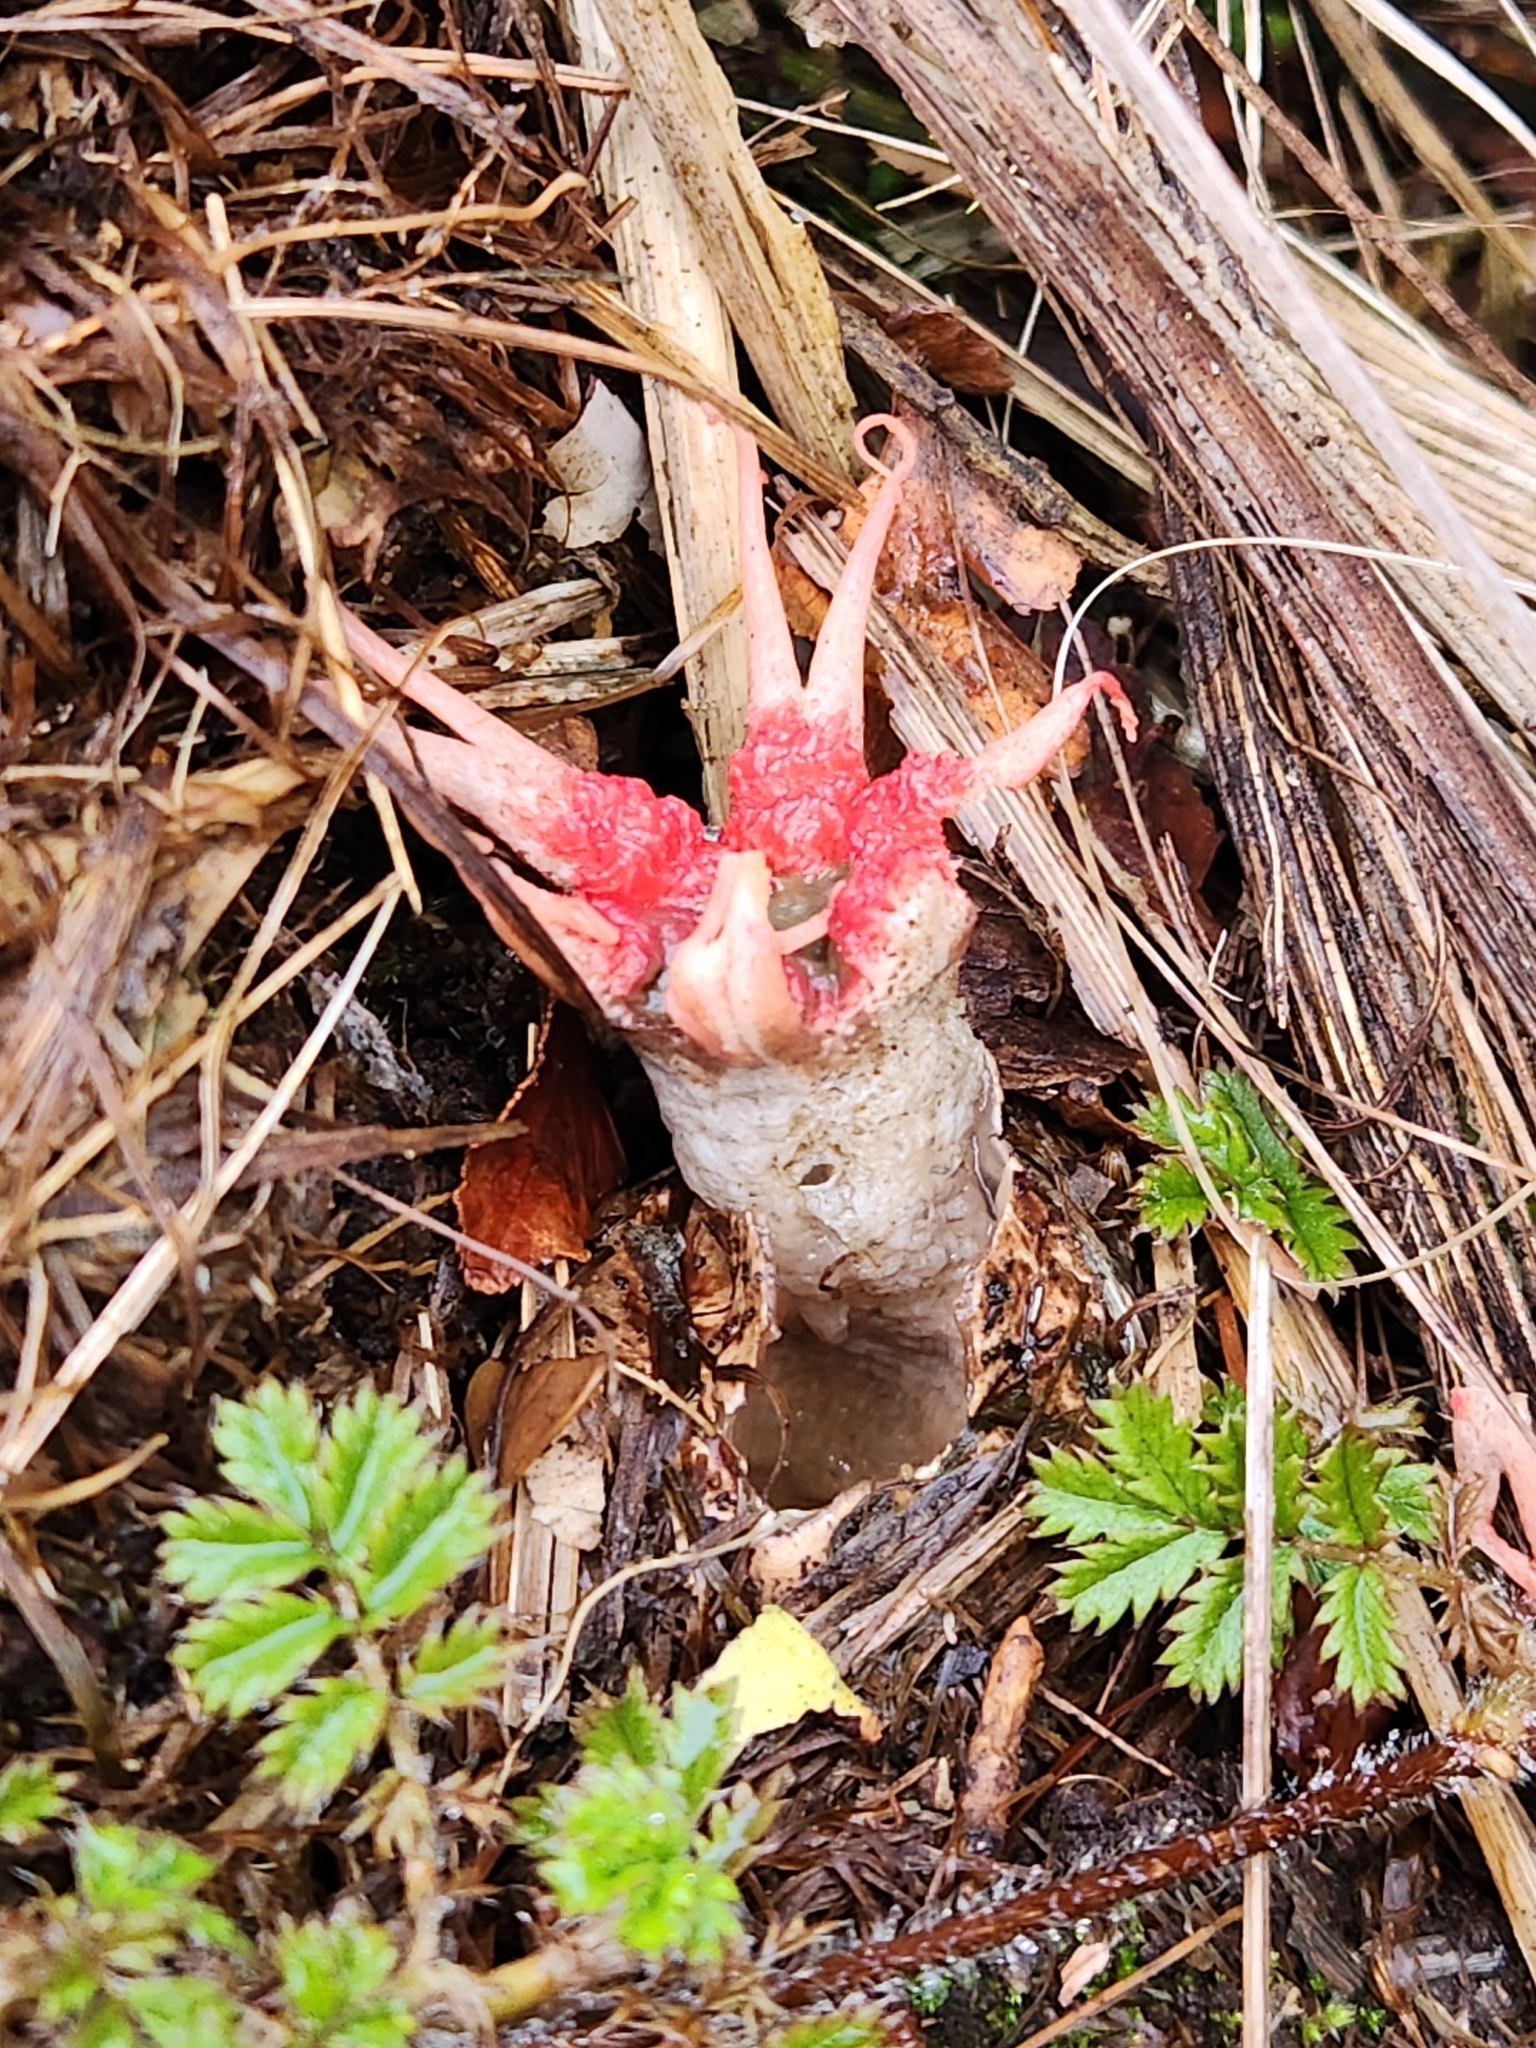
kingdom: Fungi
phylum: Basidiomycota
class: Agaricomycetes
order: Phallales
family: Phallaceae
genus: Aseroe
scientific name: Aseroe rubra
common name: Starfish fungus
